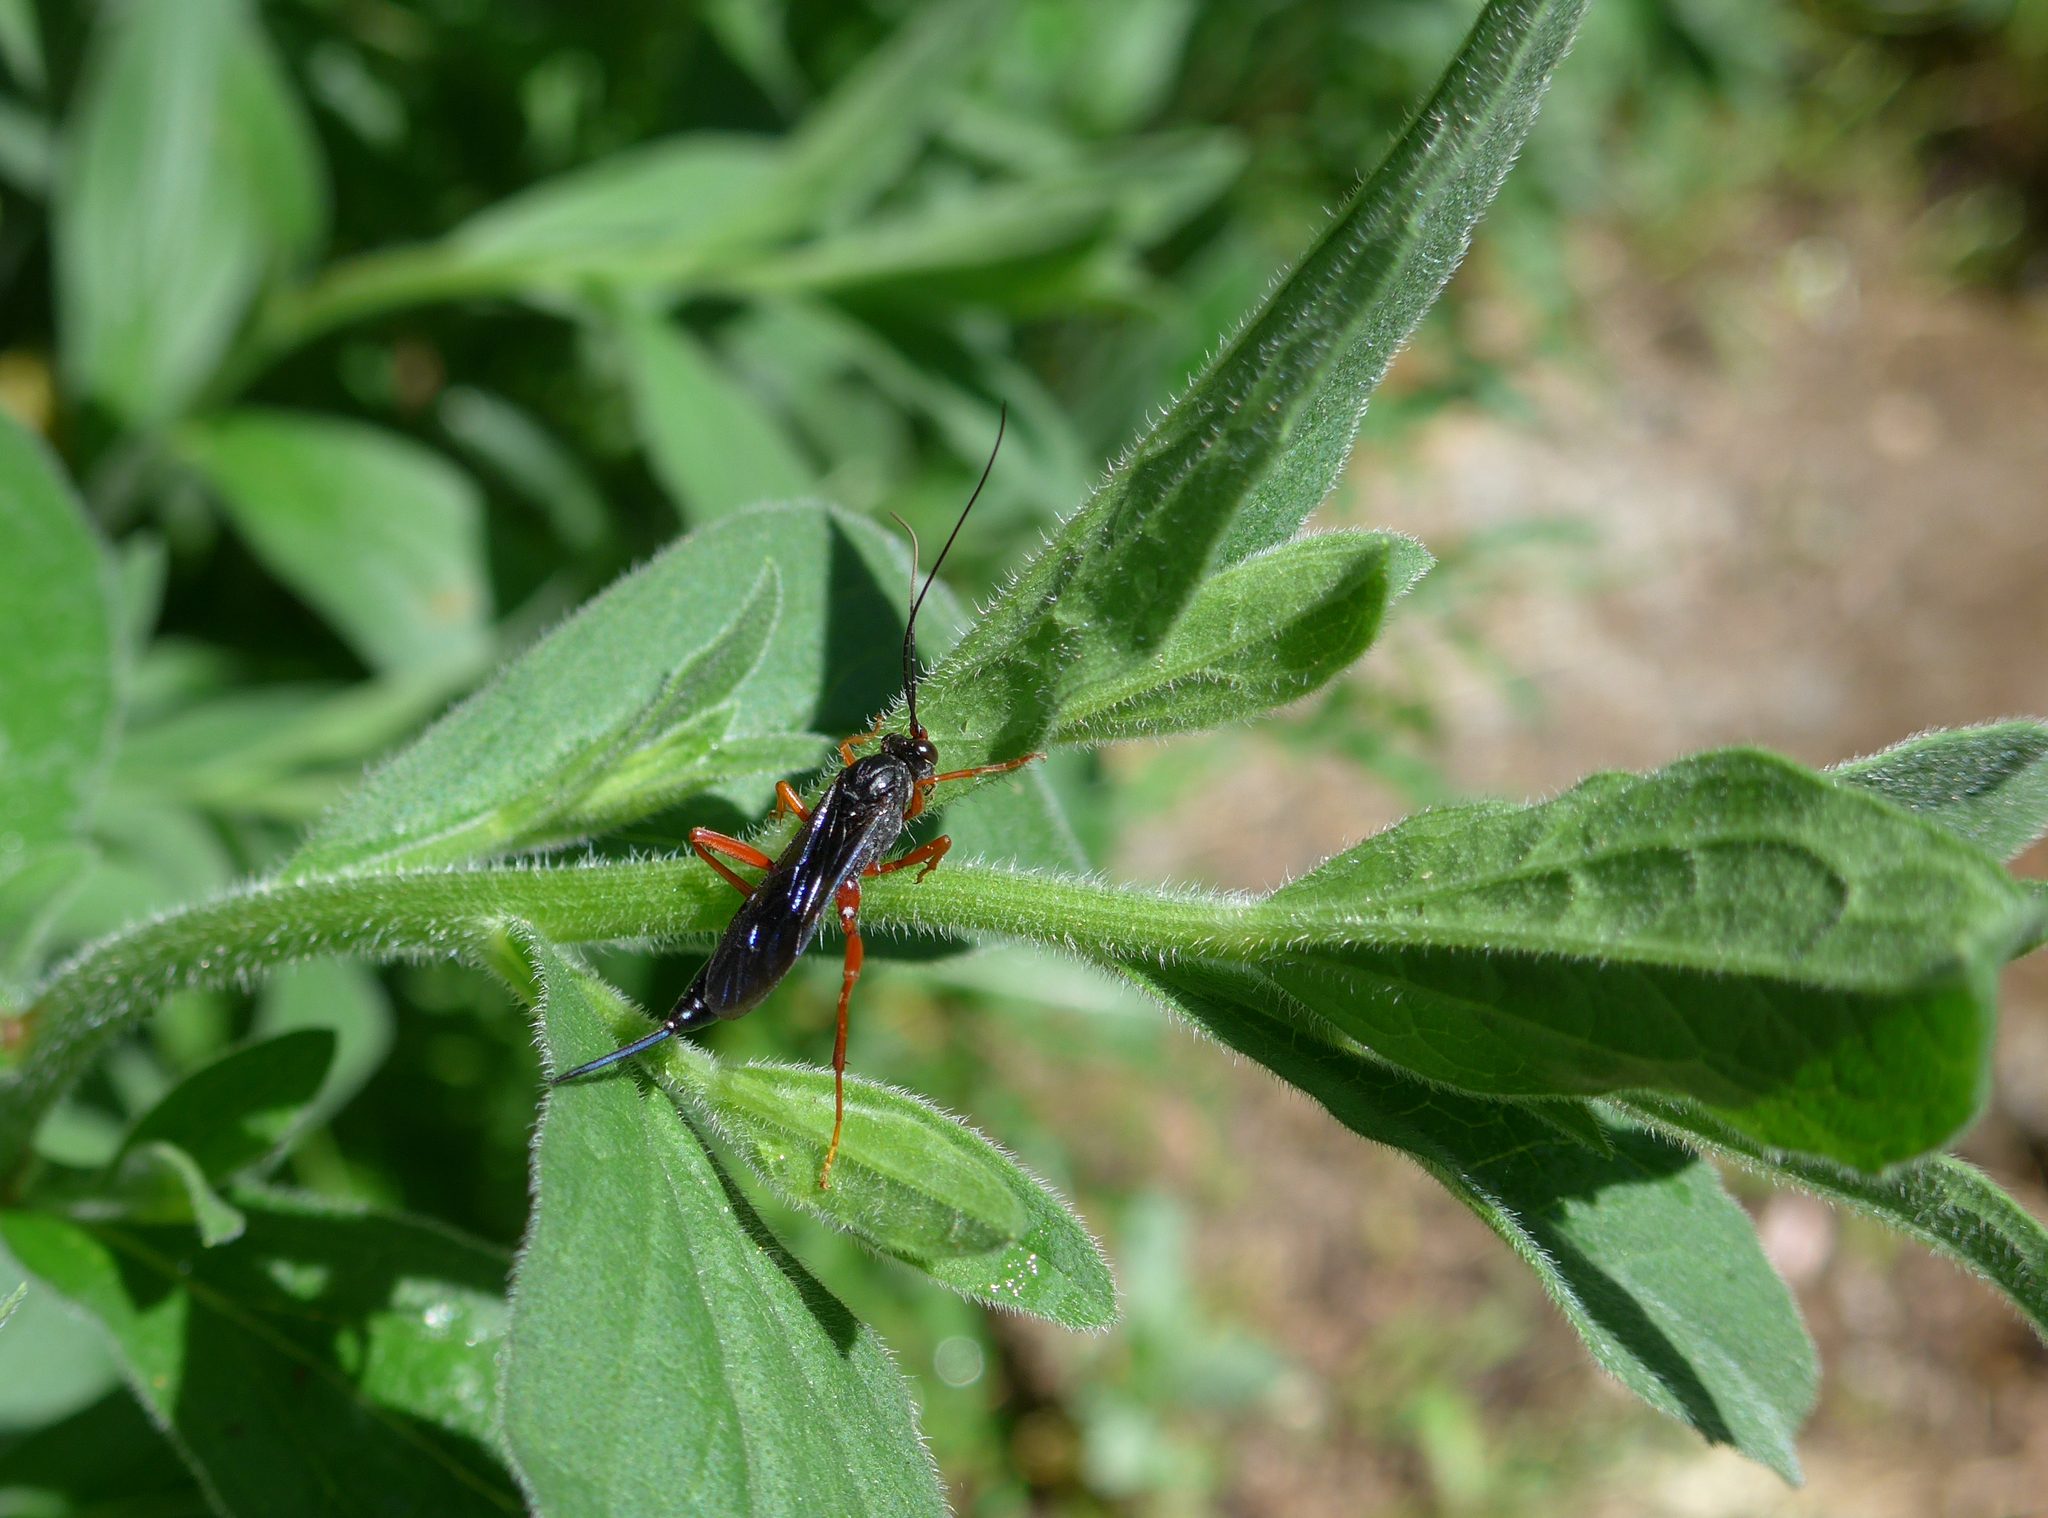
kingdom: Animalia
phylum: Arthropoda
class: Insecta
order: Hymenoptera
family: Ichneumonidae
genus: Buathra
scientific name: Buathra perplexa
